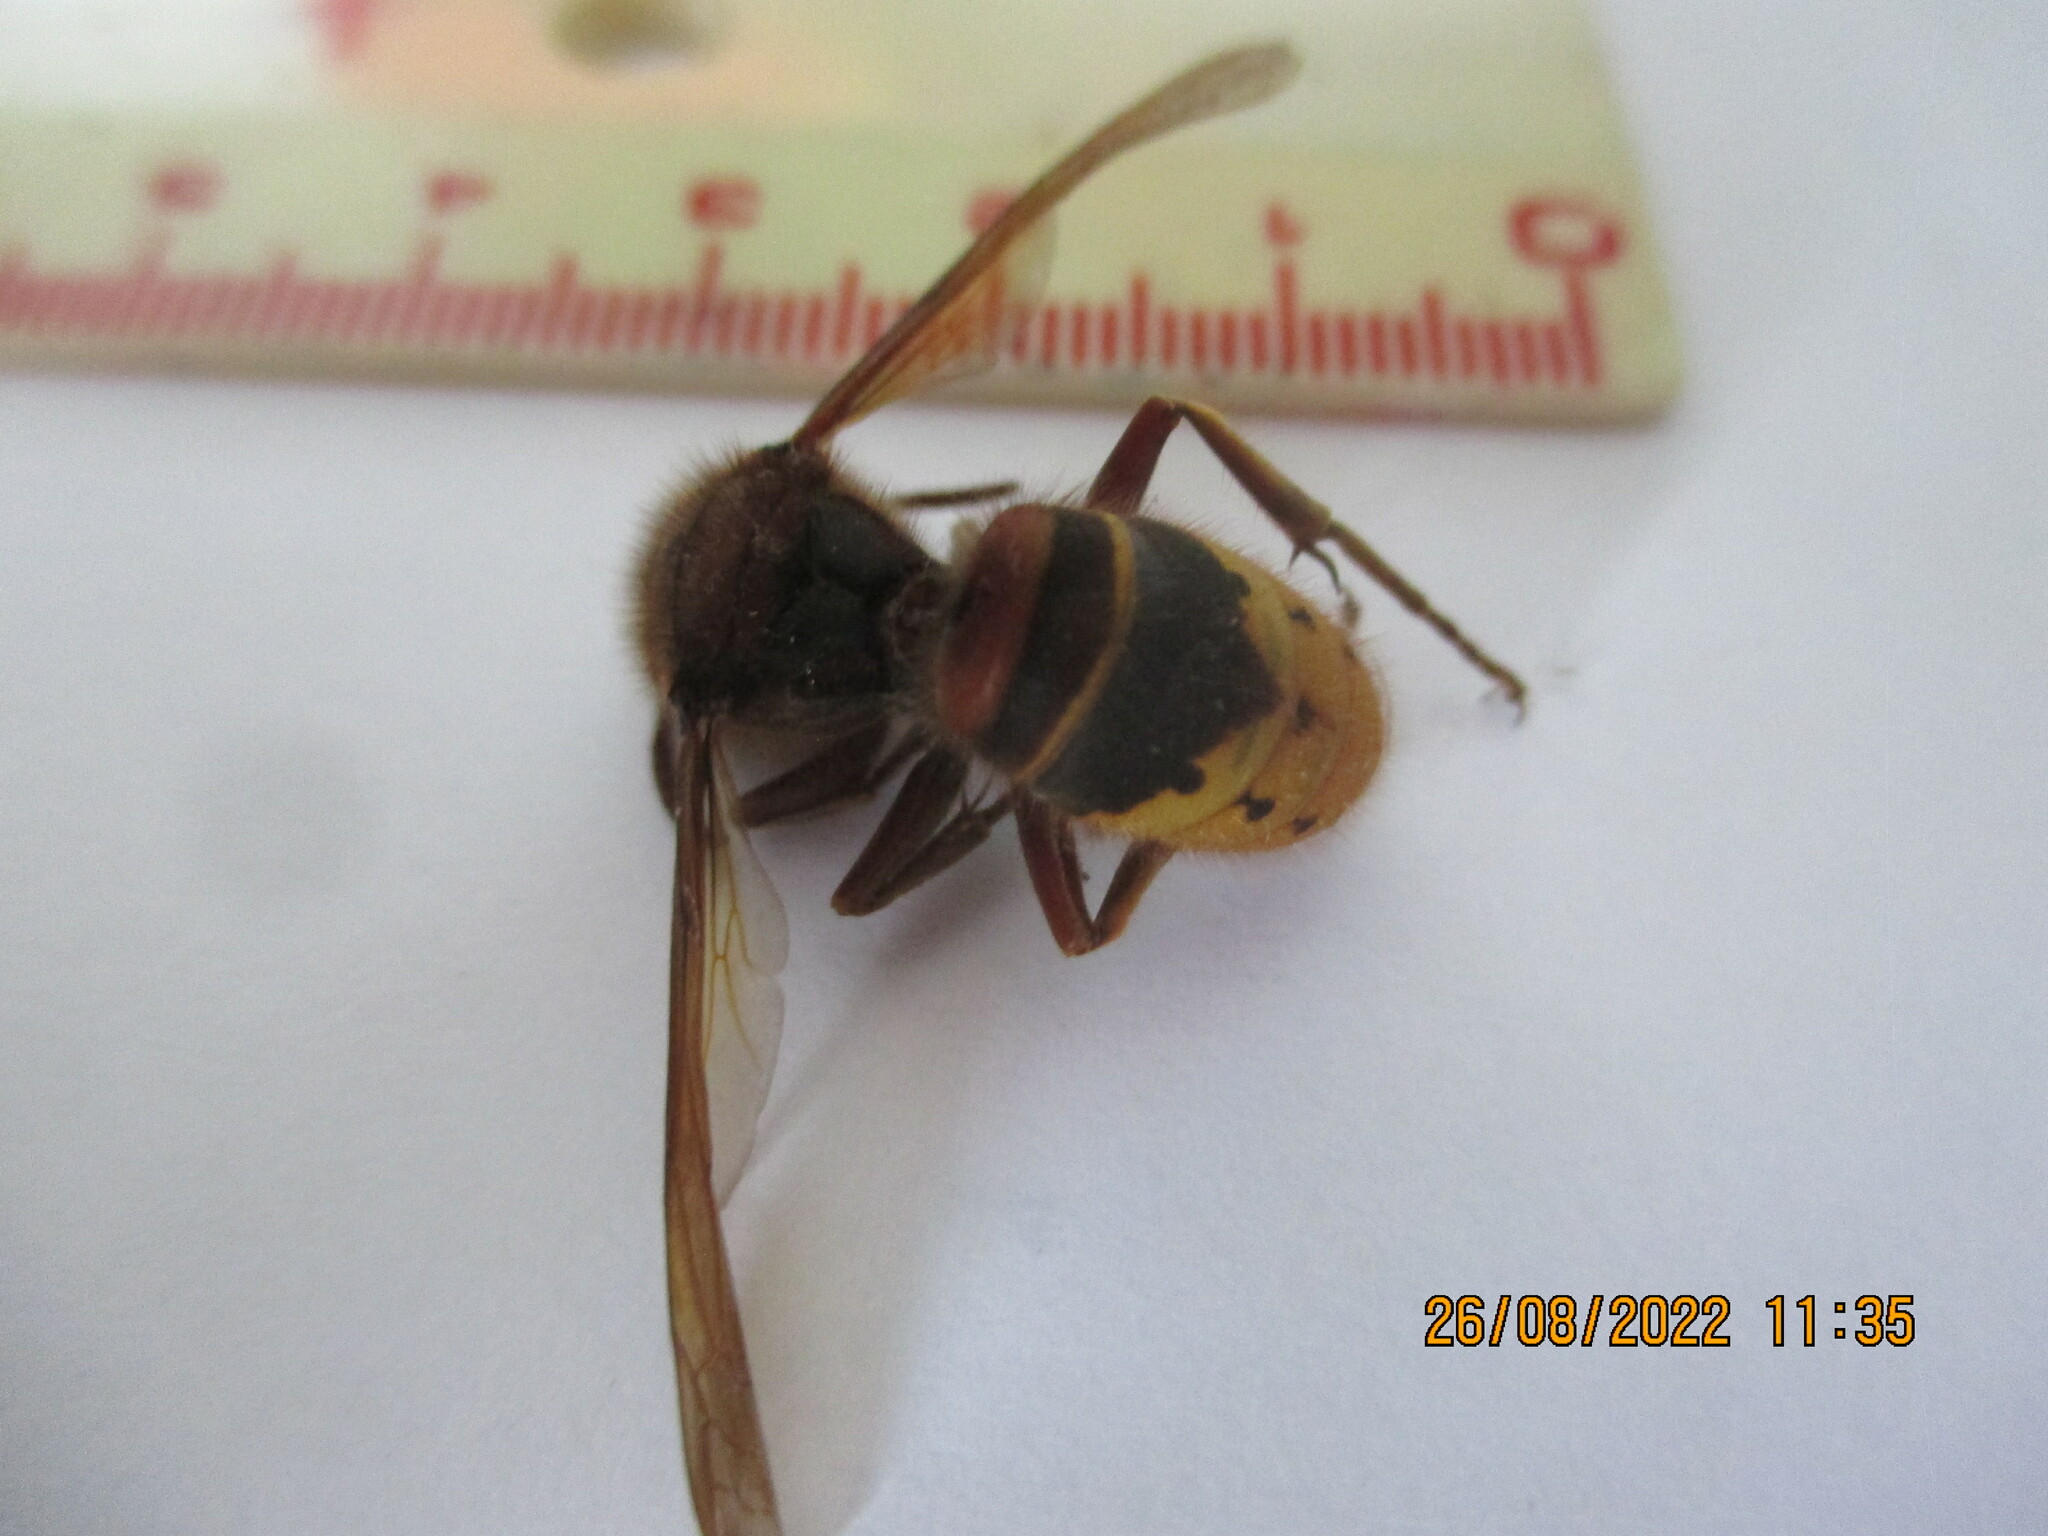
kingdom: Animalia
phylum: Arthropoda
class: Insecta
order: Hymenoptera
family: Vespidae
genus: Vespa
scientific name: Vespa crabro
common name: Hornet
